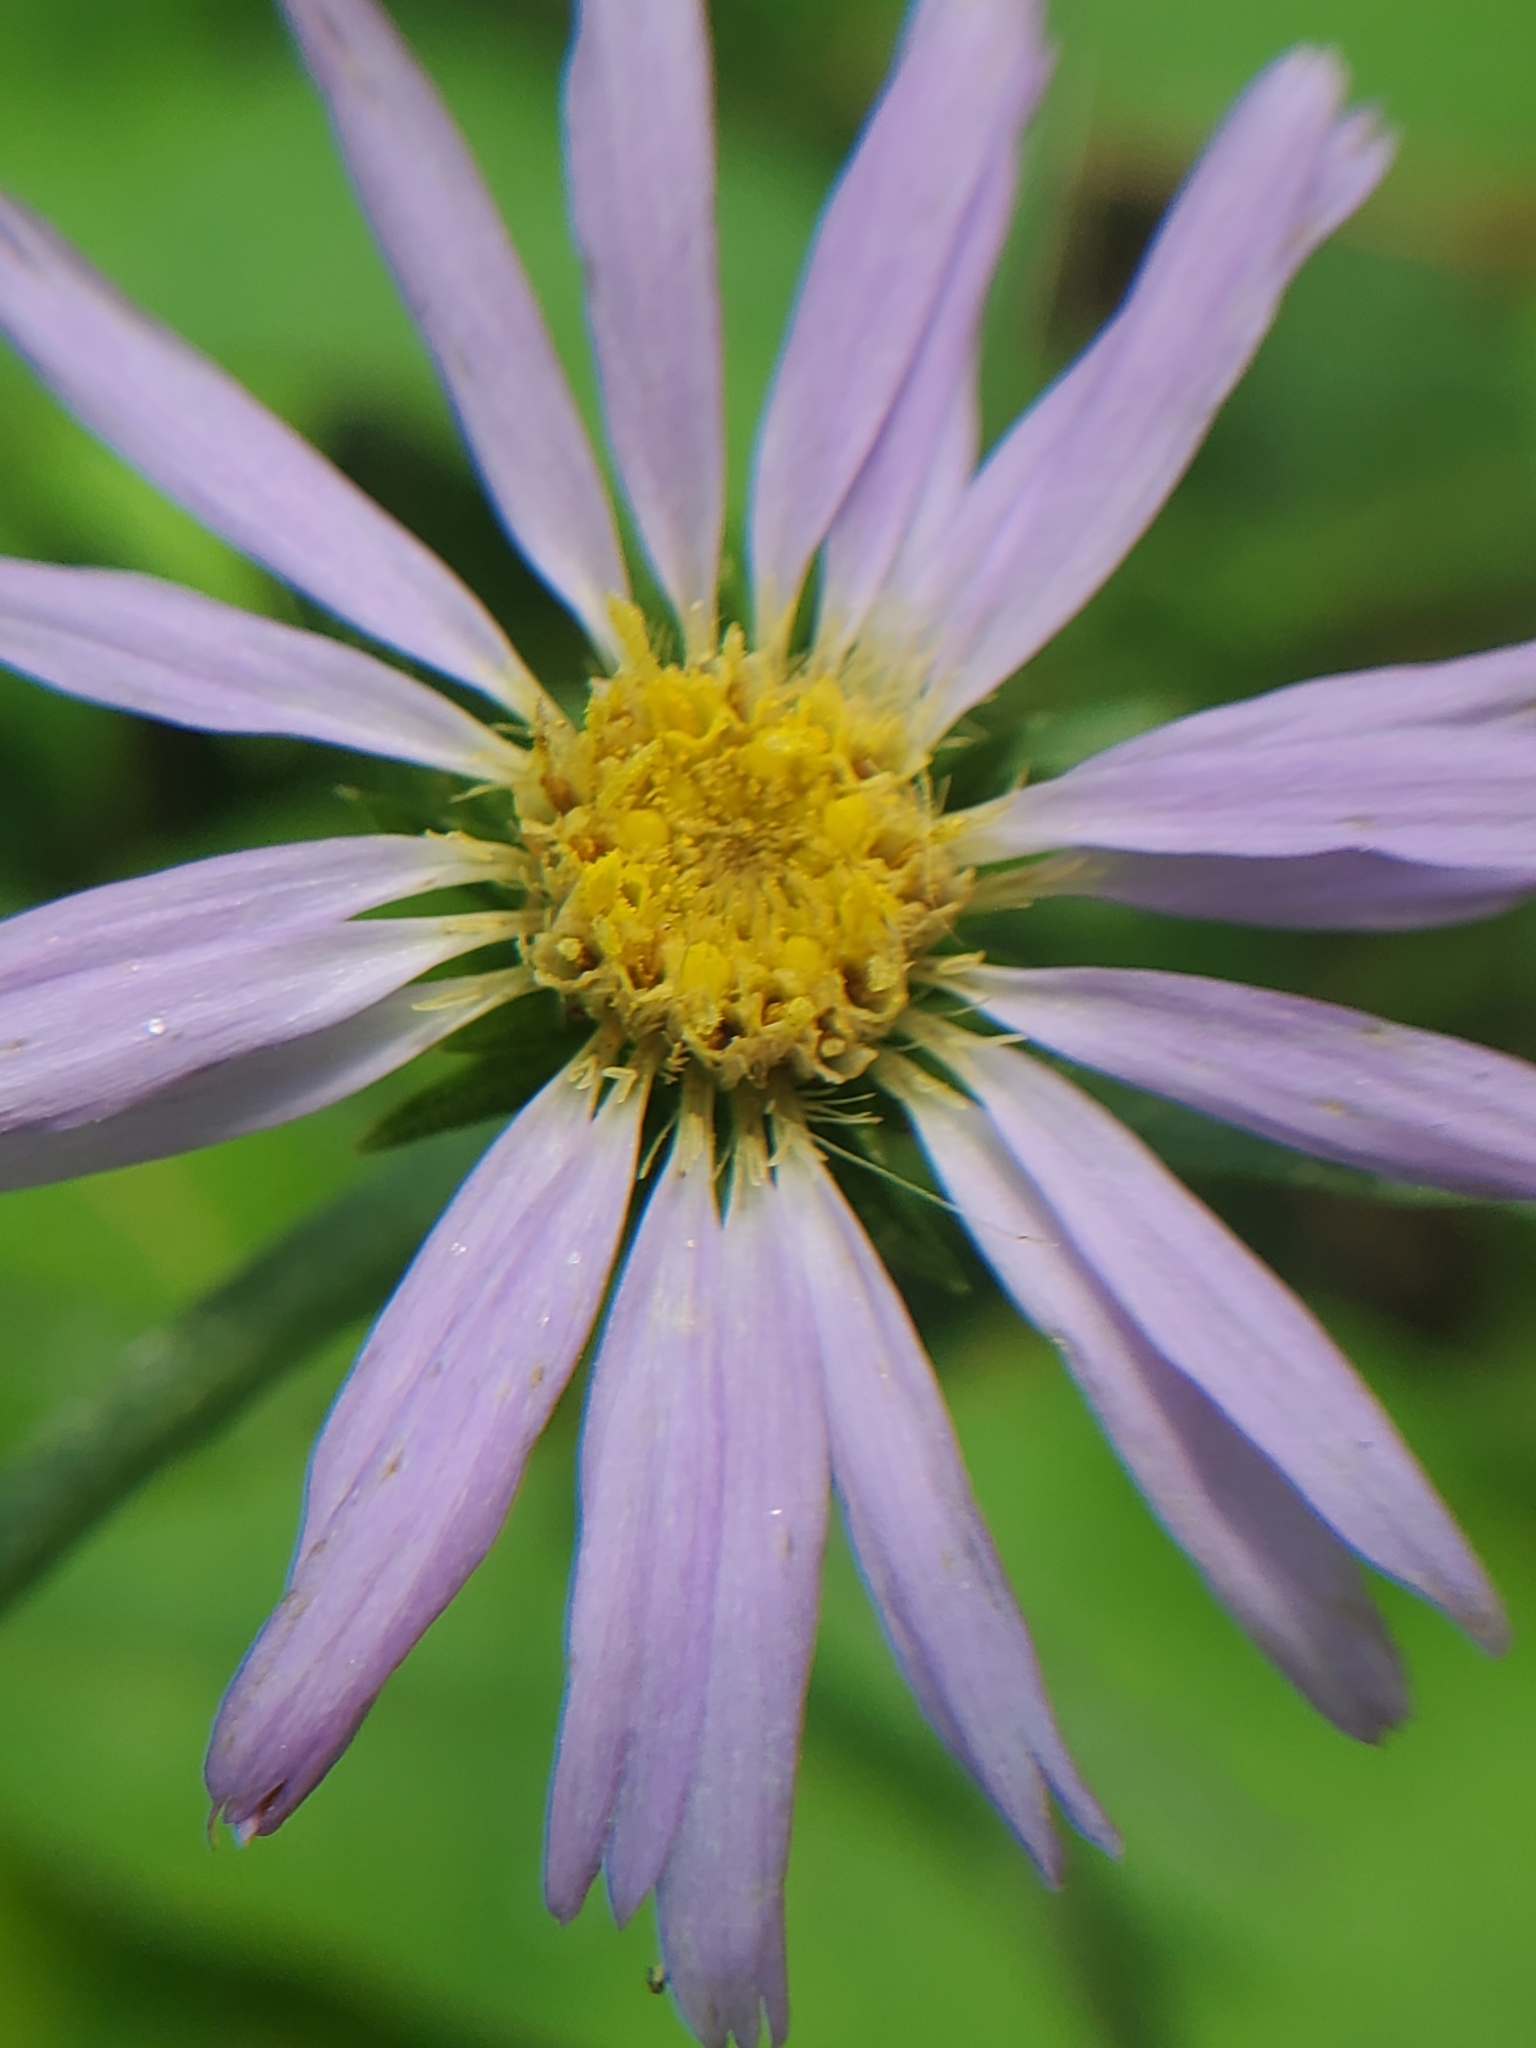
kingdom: Plantae
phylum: Tracheophyta
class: Magnoliopsida
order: Asterales
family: Asteraceae
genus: Eurybia
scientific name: Eurybia hemispherica
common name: Showy aster
